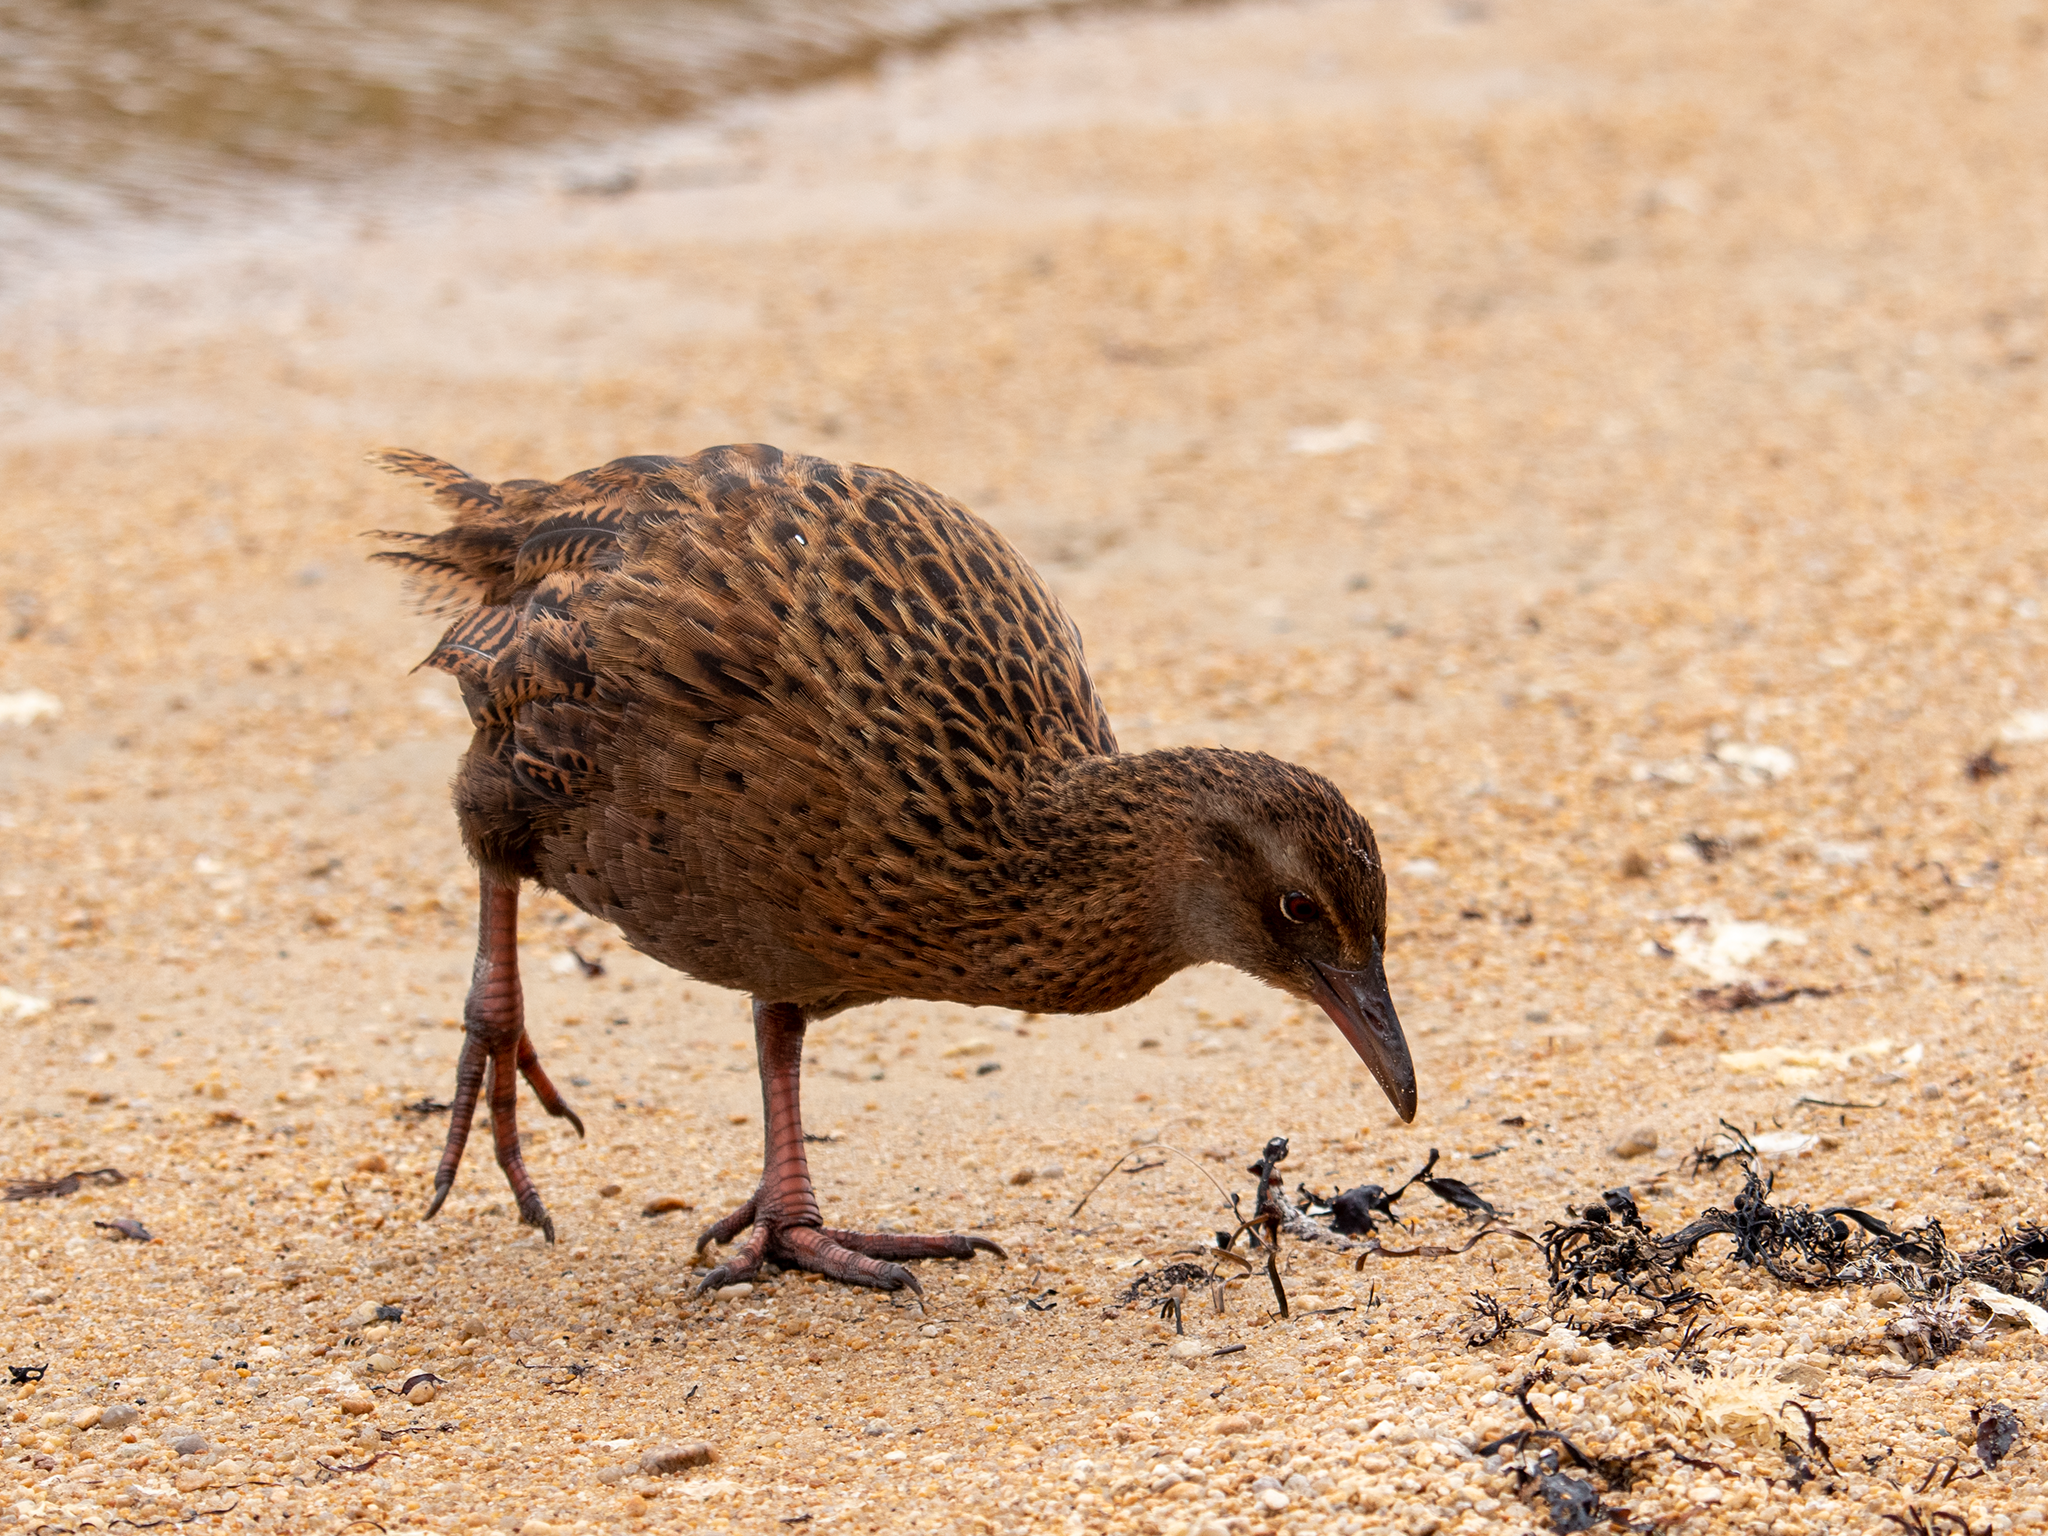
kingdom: Animalia
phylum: Chordata
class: Aves
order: Gruiformes
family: Rallidae
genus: Gallirallus
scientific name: Gallirallus australis
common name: Weka
